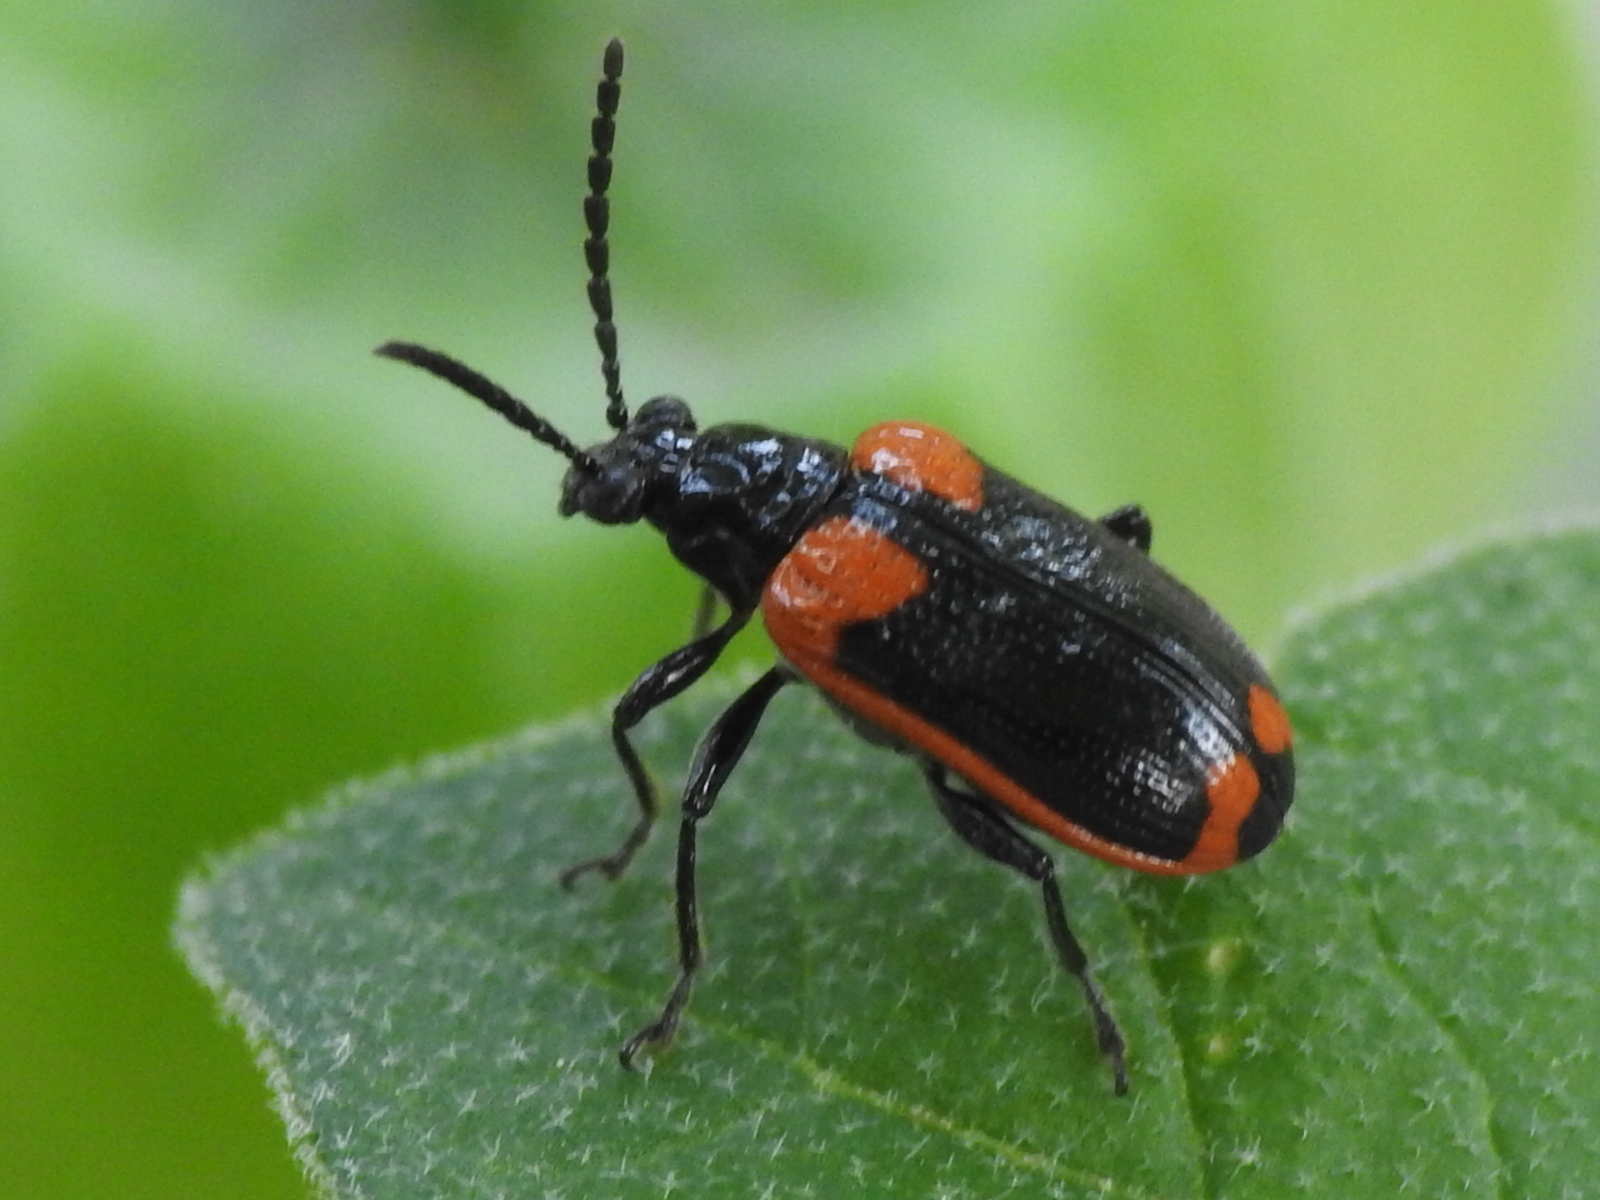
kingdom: Animalia
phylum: Arthropoda
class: Insecta
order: Coleoptera
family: Chrysomelidae
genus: Lema
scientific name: Lema confusa
